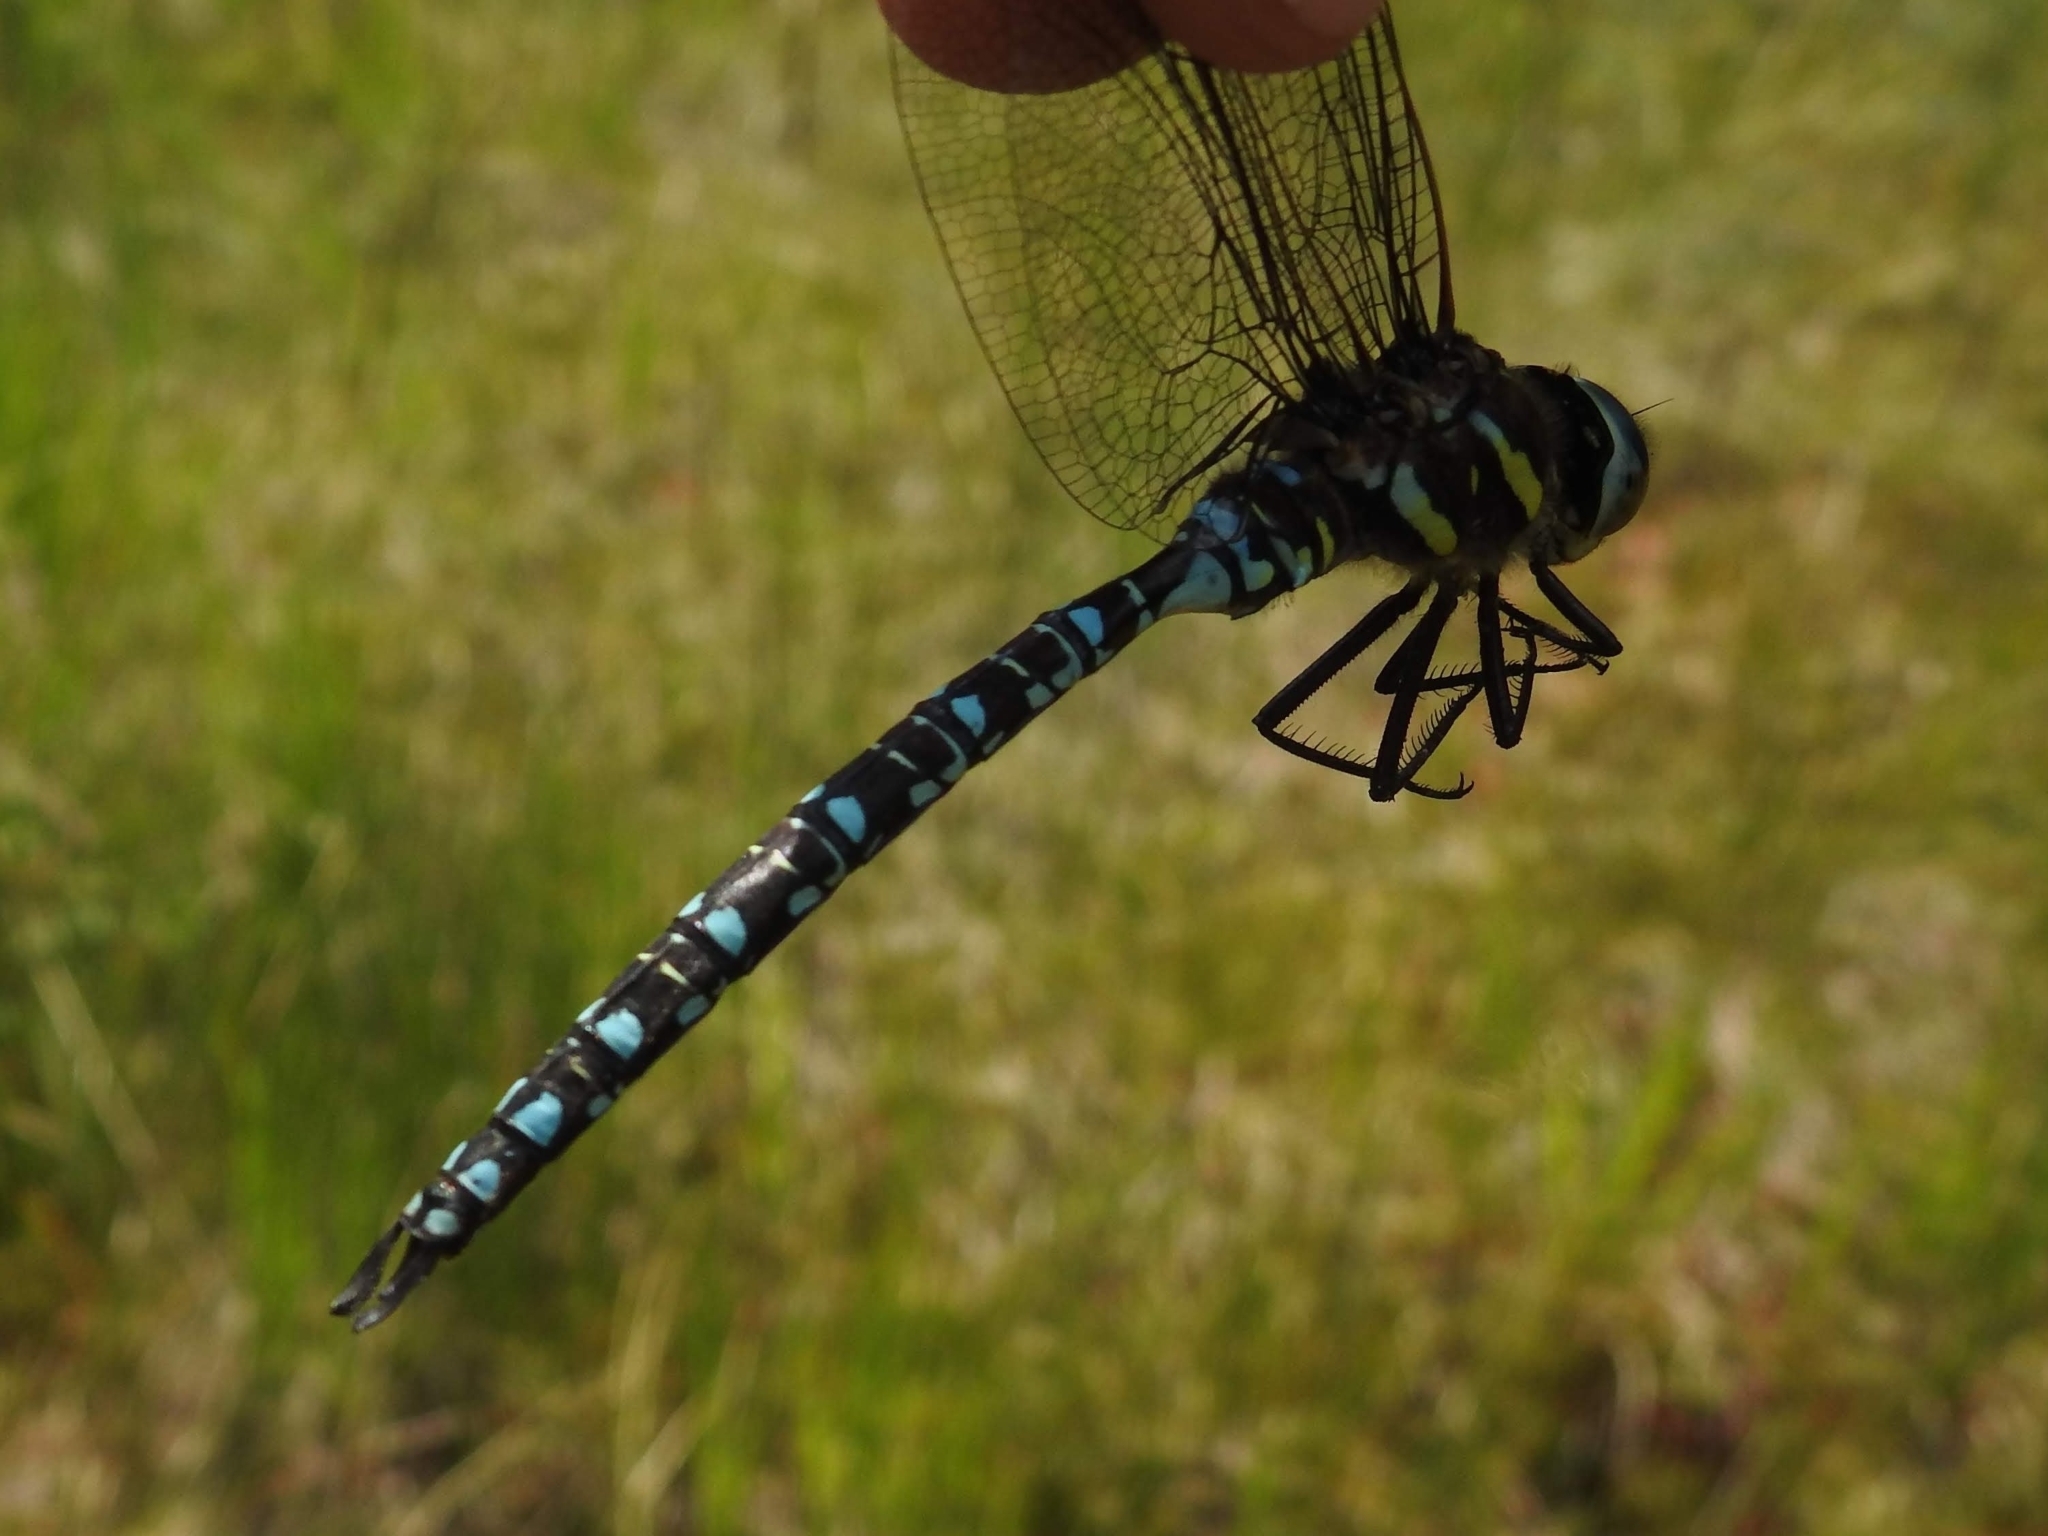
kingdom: Animalia
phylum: Arthropoda
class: Insecta
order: Odonata
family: Aeshnidae
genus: Aeshna
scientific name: Aeshna juncea
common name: Moorland hawker
